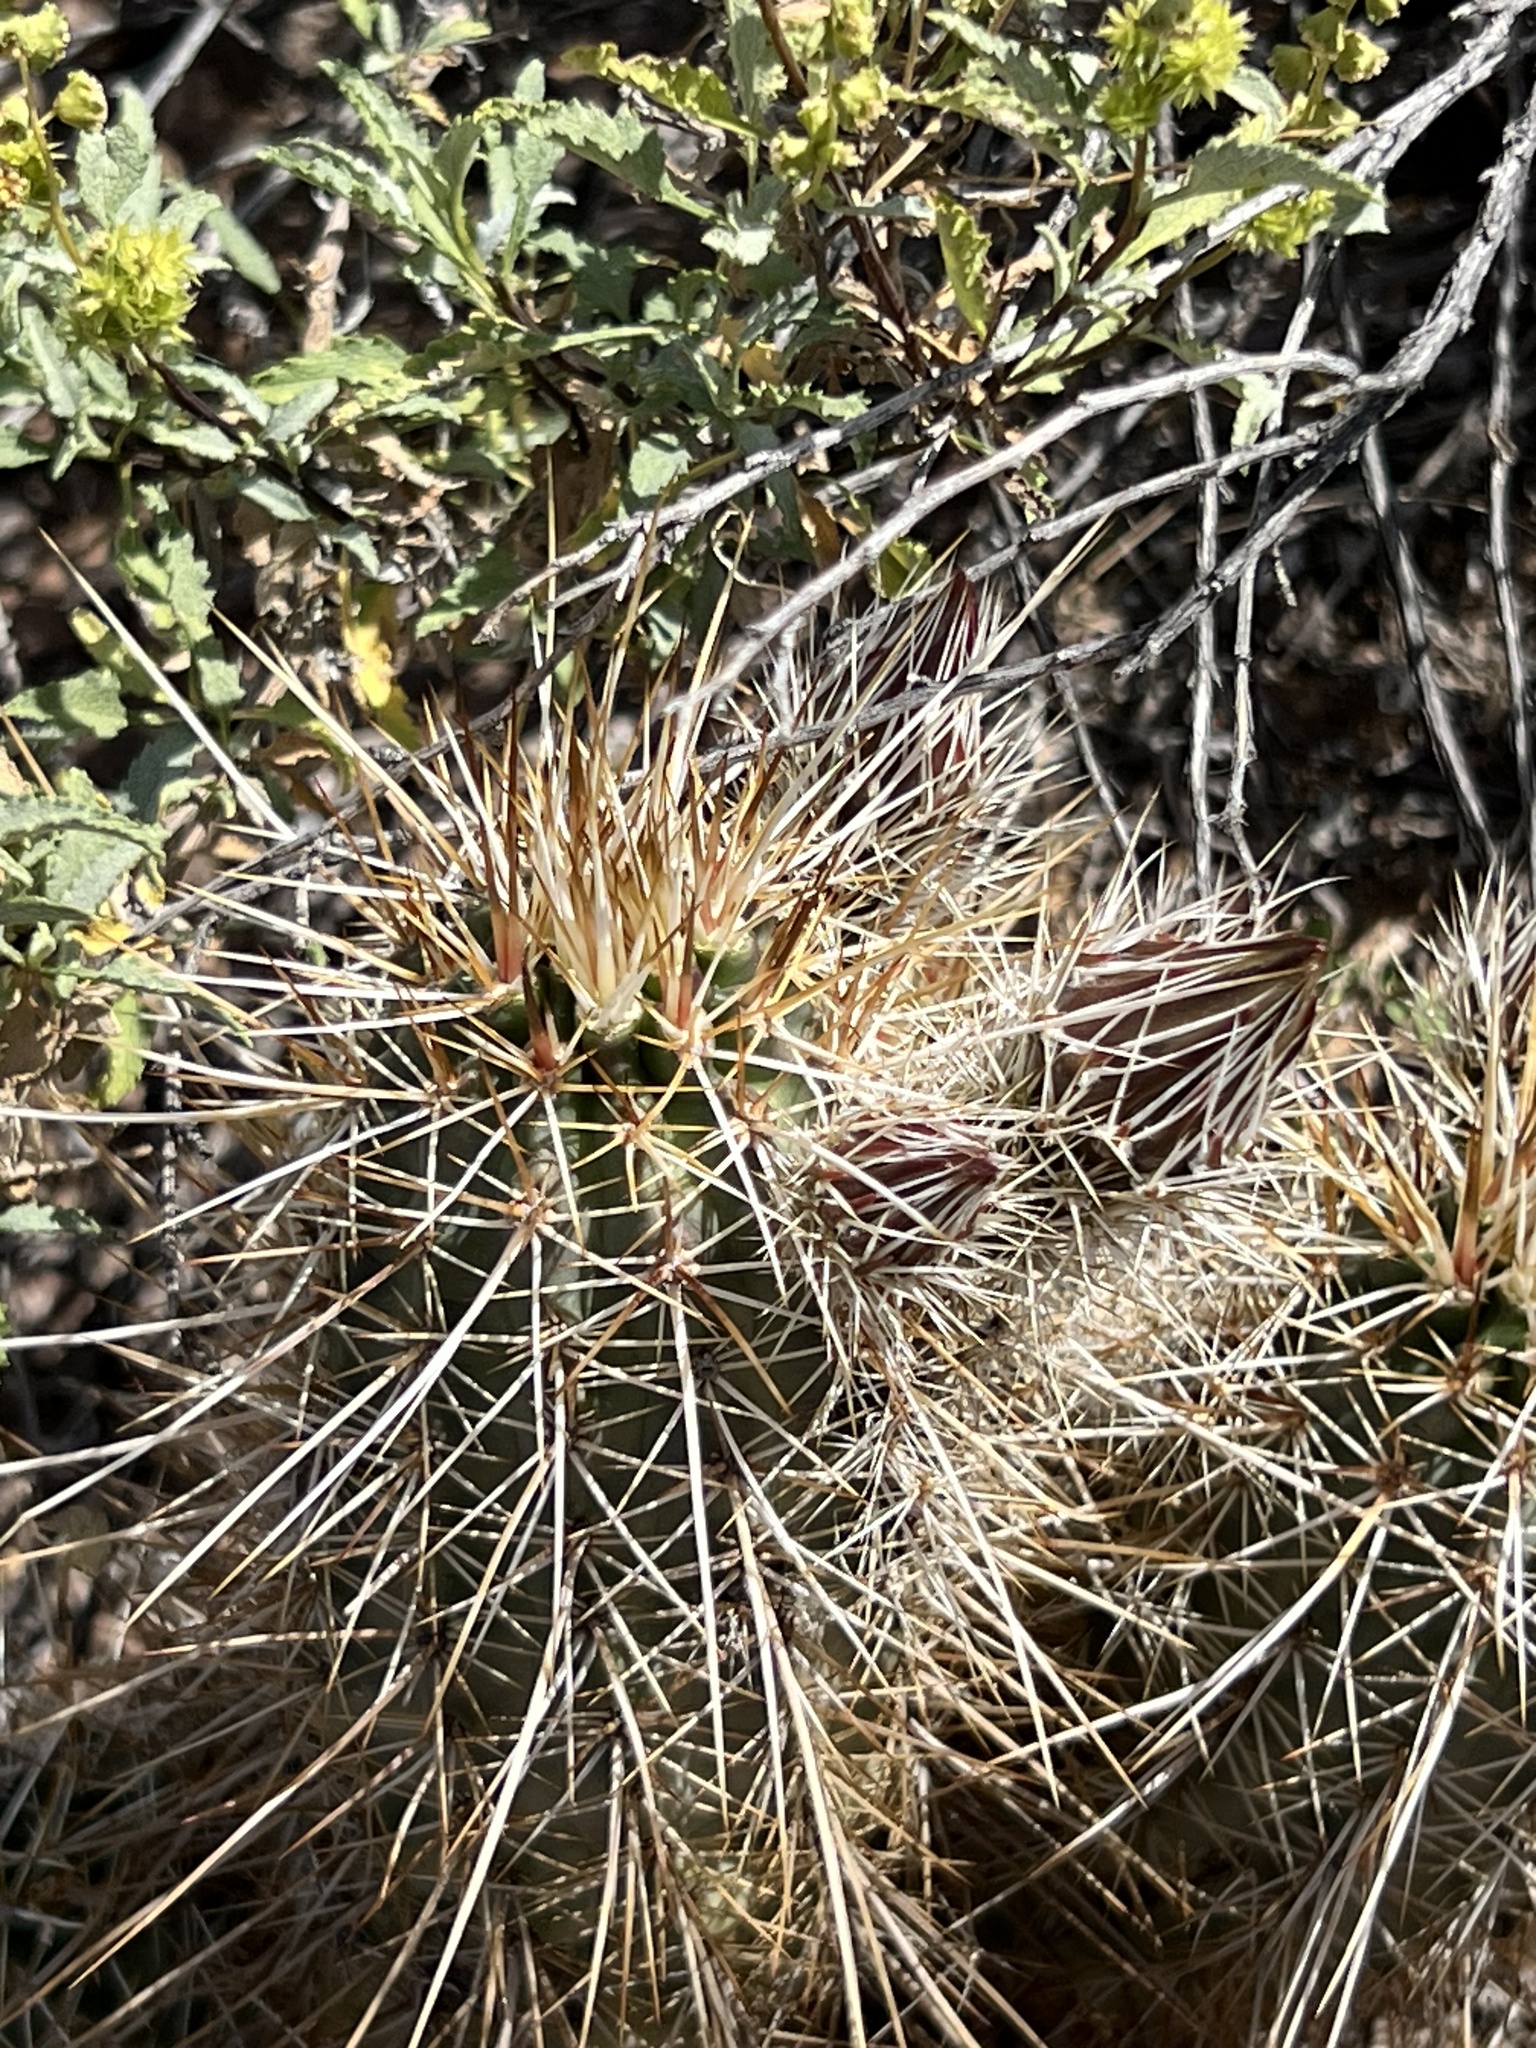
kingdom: Plantae
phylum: Tracheophyta
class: Magnoliopsida
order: Caryophyllales
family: Cactaceae
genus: Echinocereus
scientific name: Echinocereus engelmannii
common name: Engelmann's hedgehog cactus
